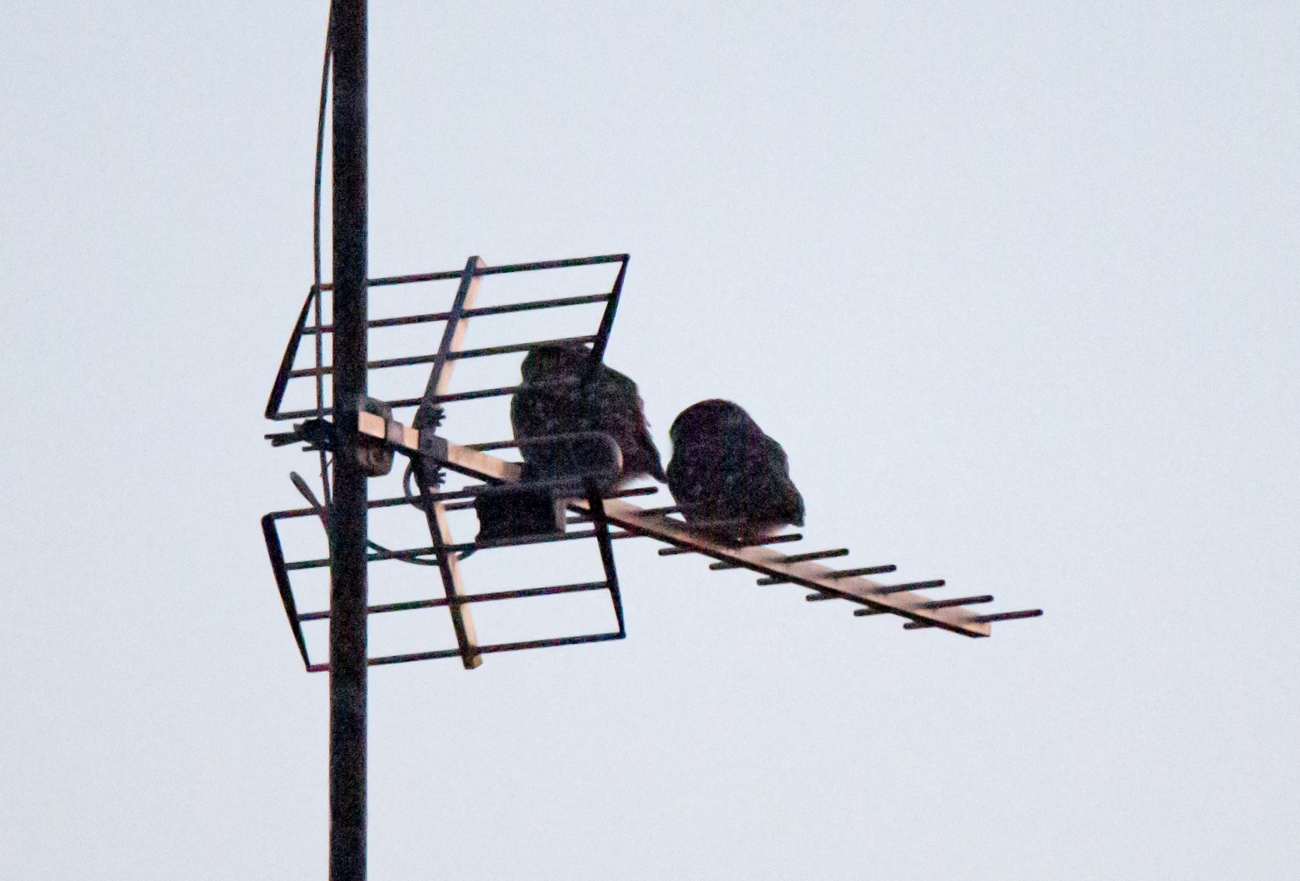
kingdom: Animalia
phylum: Chordata
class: Aves
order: Strigiformes
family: Strigidae
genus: Athene
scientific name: Athene noctua
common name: Little owl
